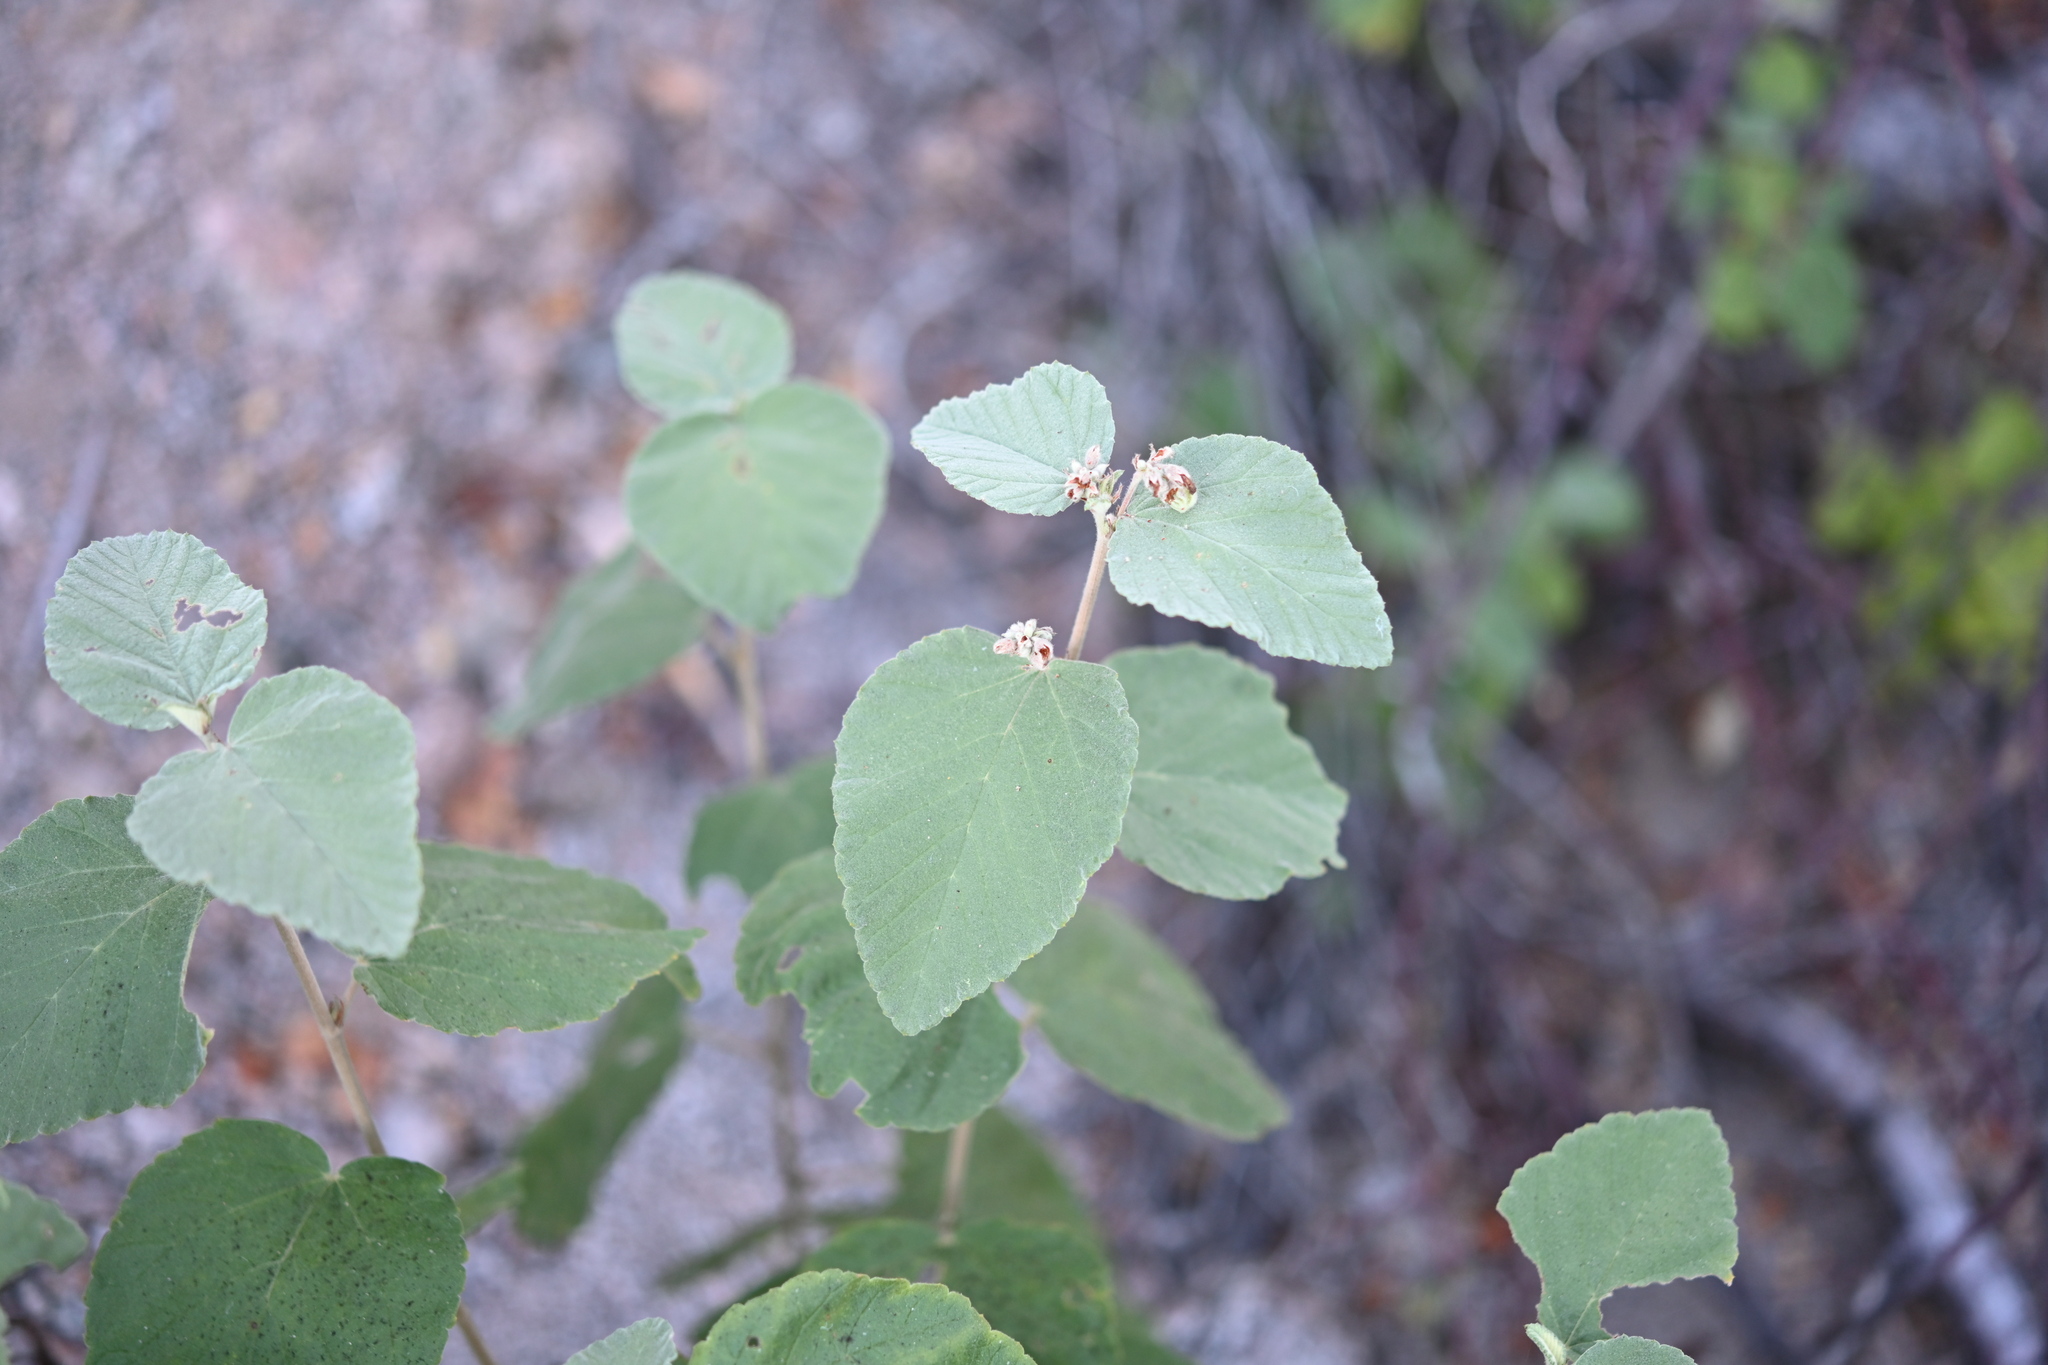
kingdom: Plantae
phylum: Tracheophyta
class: Magnoliopsida
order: Malvales
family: Malvaceae
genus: Melochia
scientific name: Melochia tomentosa
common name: Black torch
